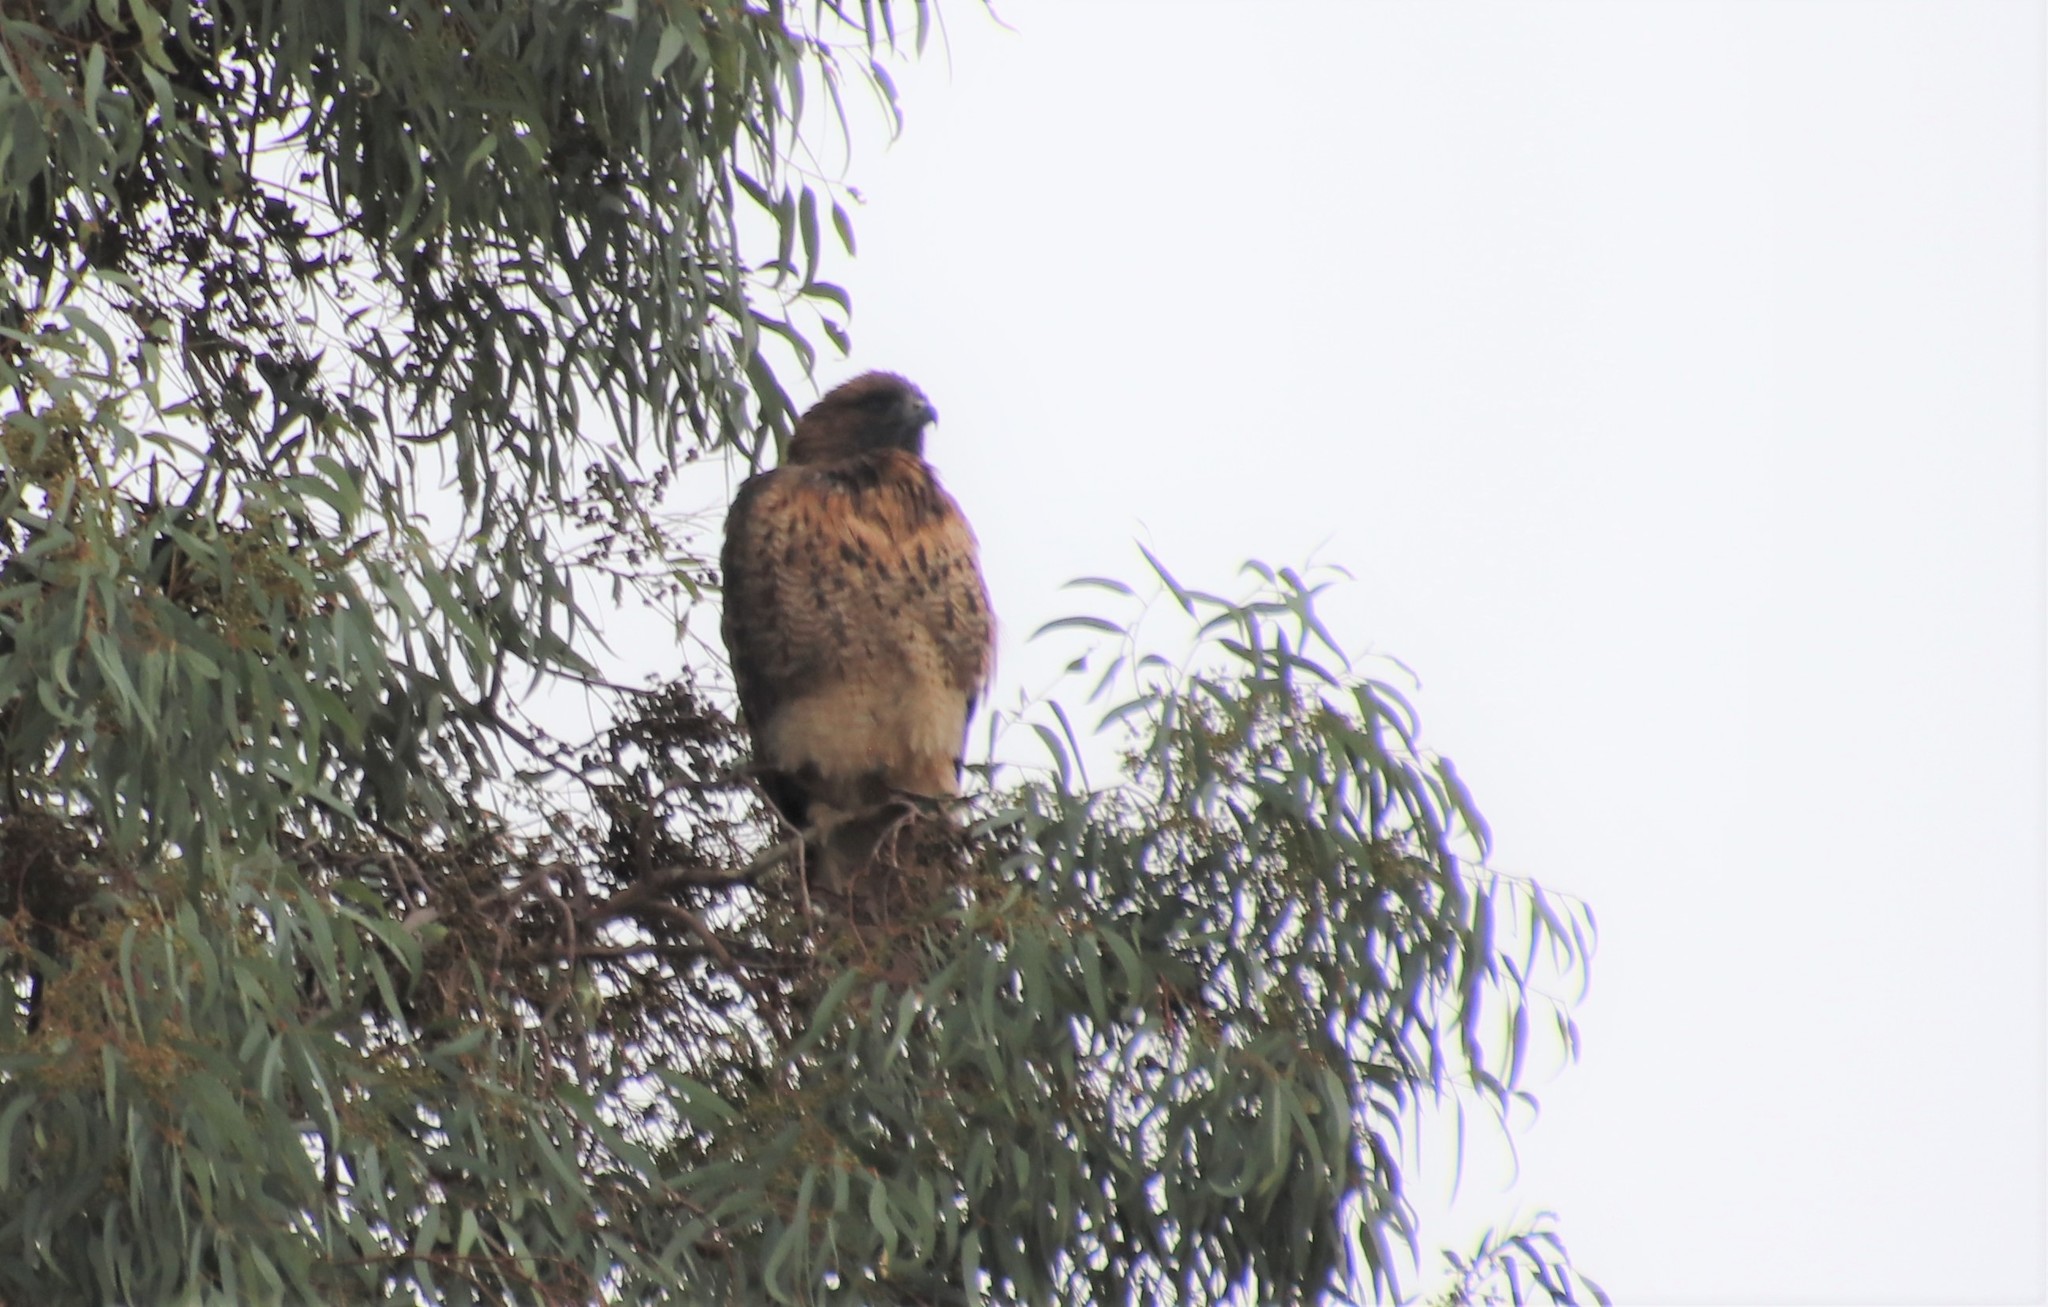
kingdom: Animalia
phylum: Chordata
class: Aves
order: Accipitriformes
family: Accipitridae
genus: Buteo
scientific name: Buteo jamaicensis
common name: Red-tailed hawk
